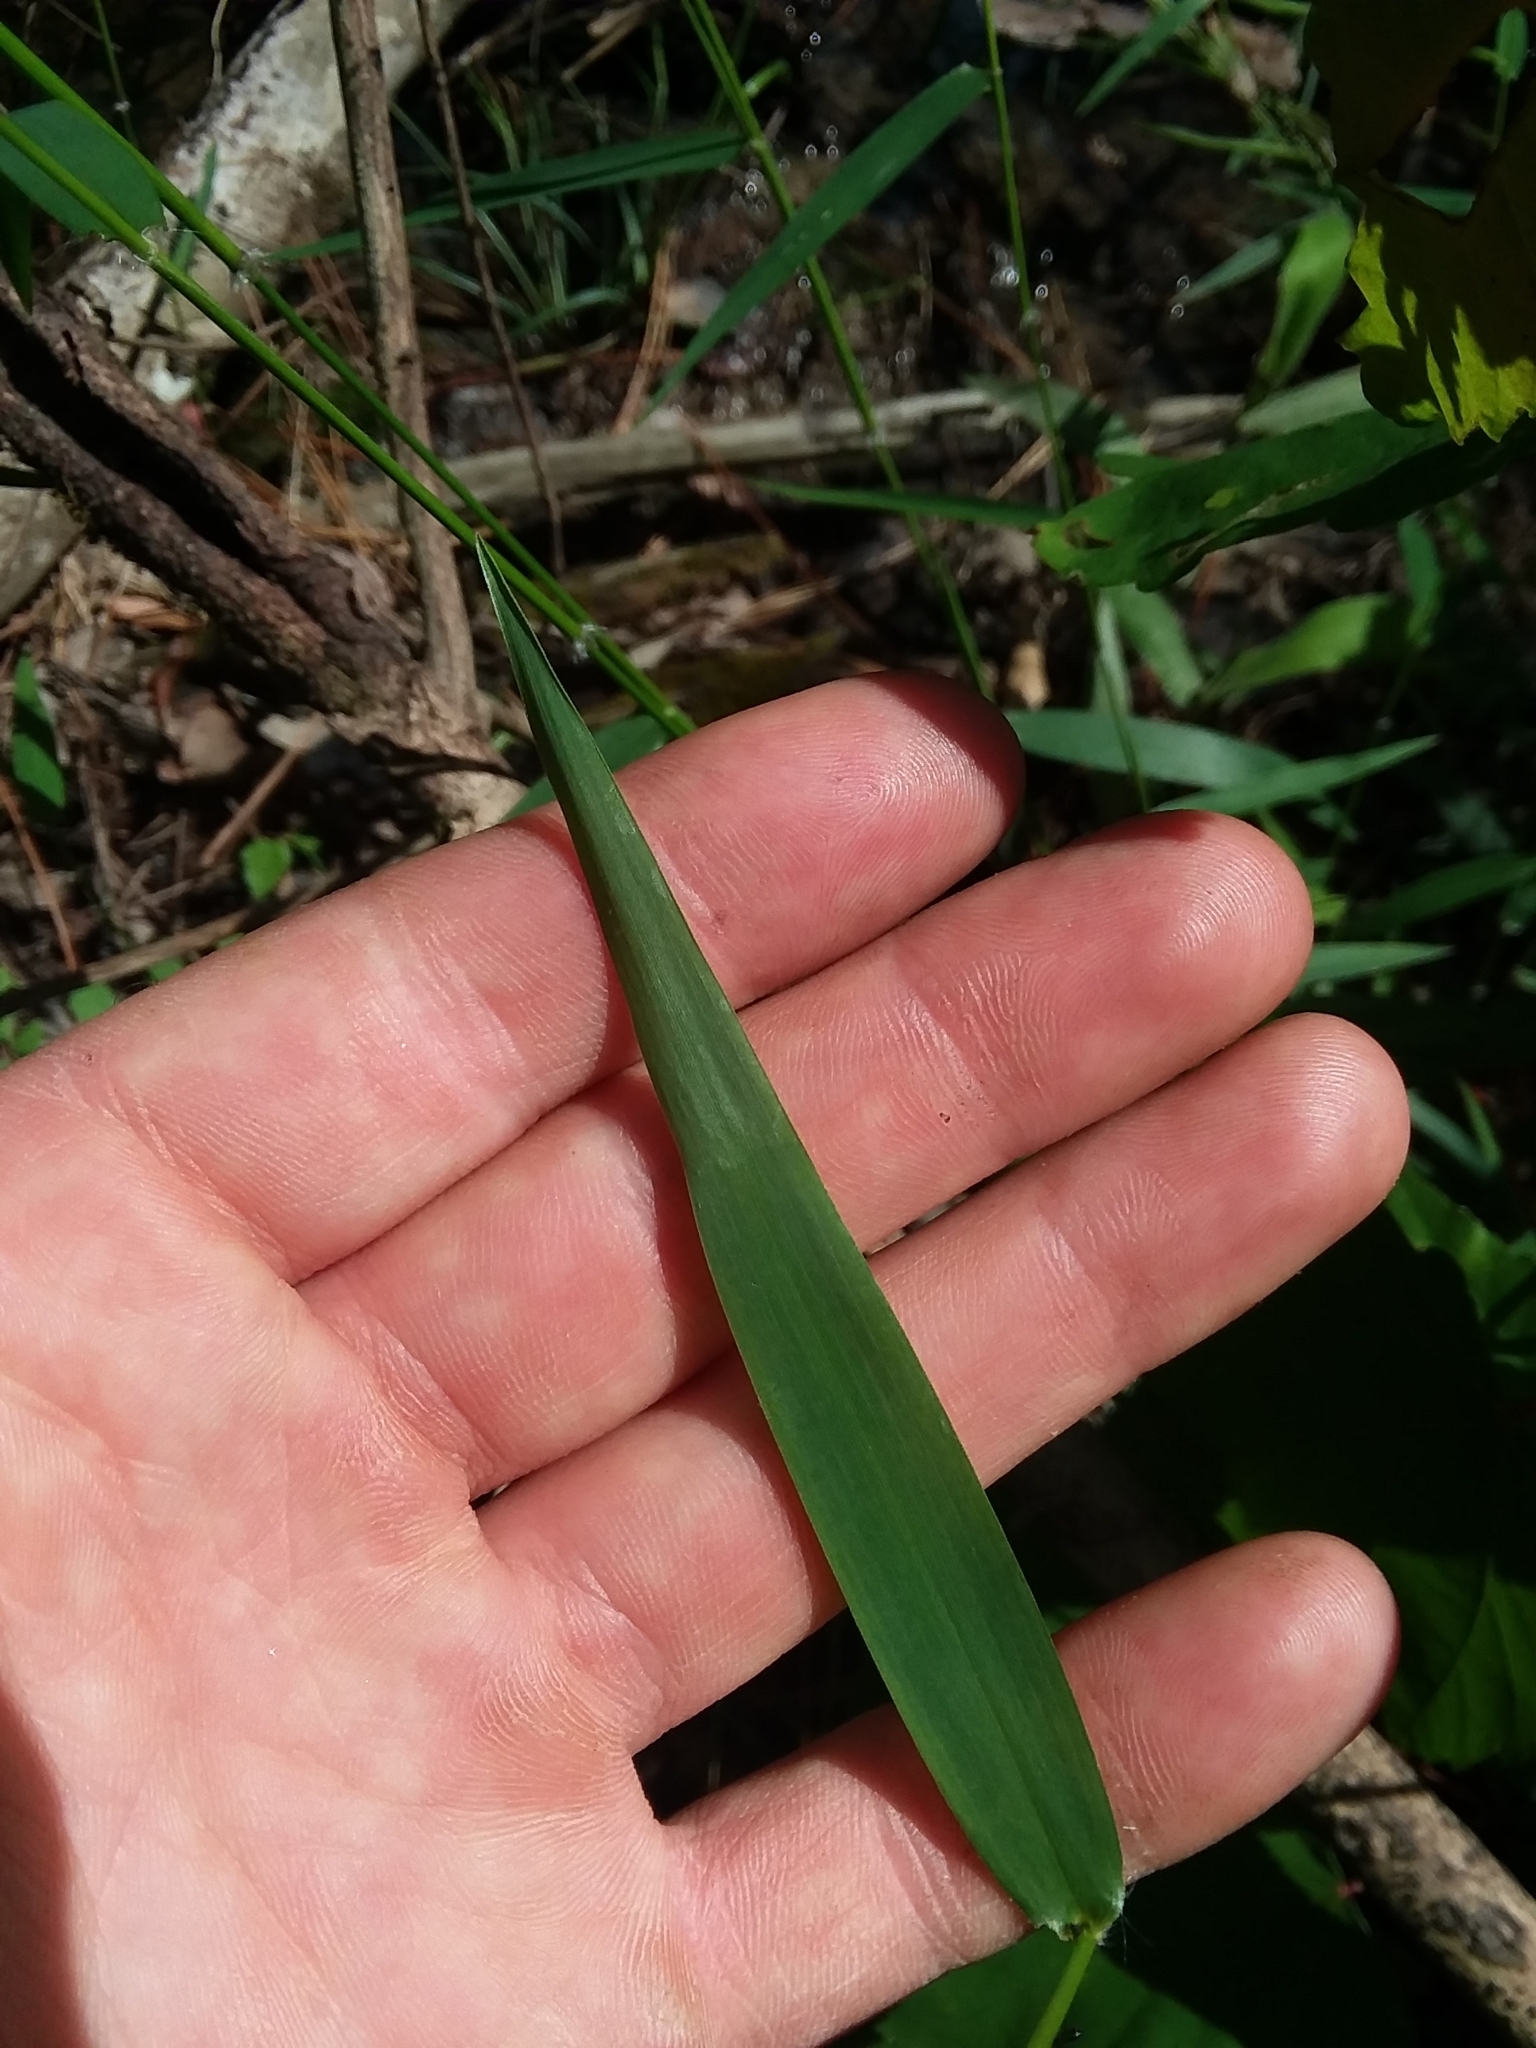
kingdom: Plantae
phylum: Tracheophyta
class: Liliopsida
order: Poales
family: Poaceae
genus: Dichanthelium
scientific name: Dichanthelium microcarpon
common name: Small-fruited witchgrass
